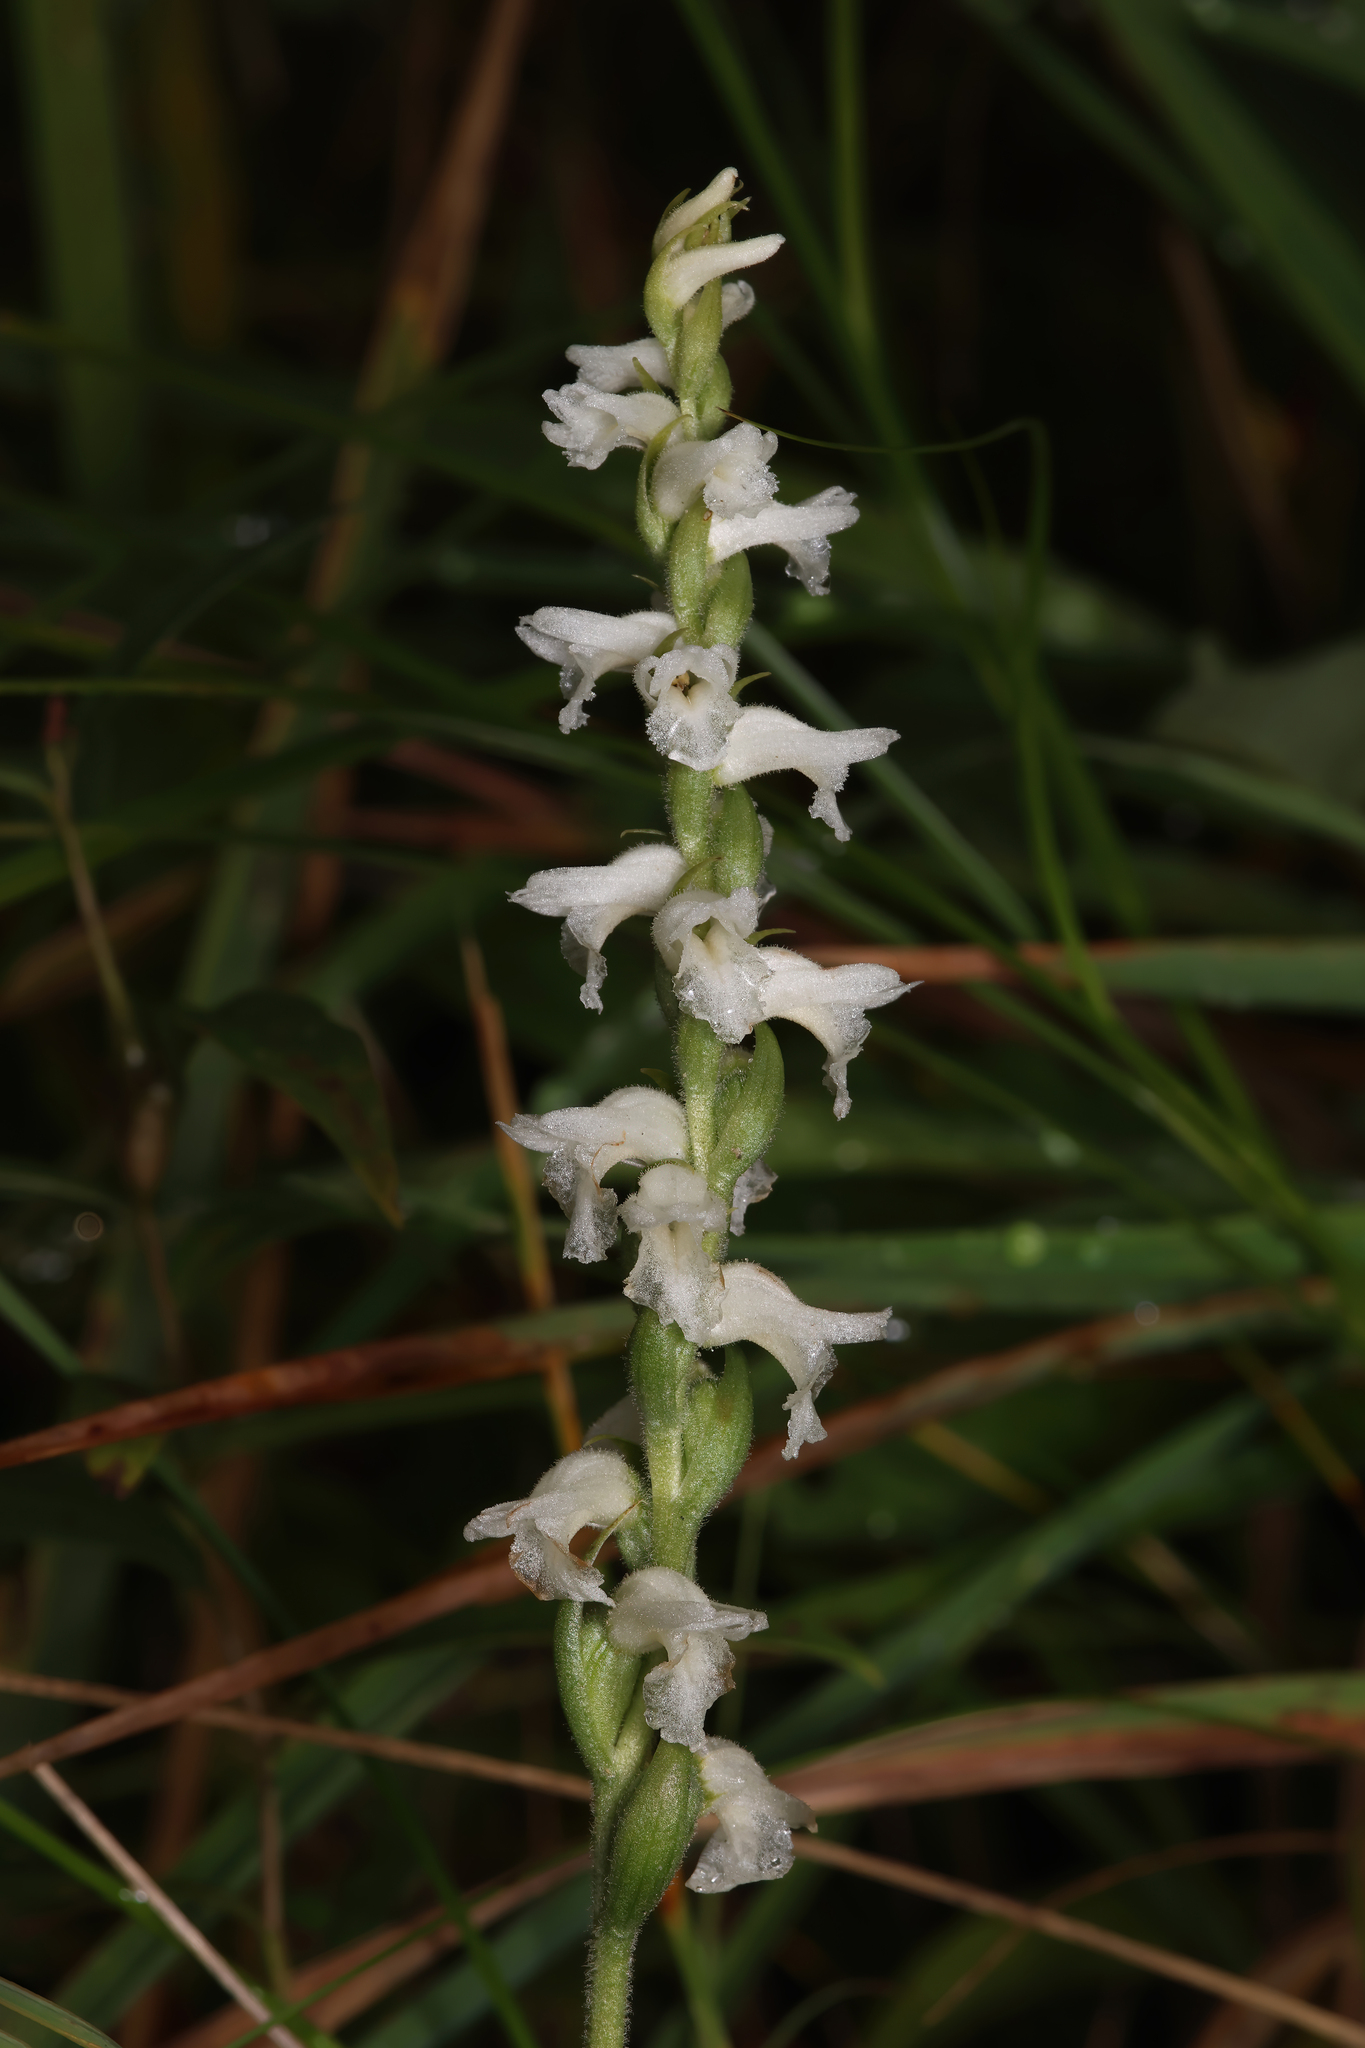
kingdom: Plantae
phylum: Tracheophyta
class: Liliopsida
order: Asparagales
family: Orchidaceae
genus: Spiranthes
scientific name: Spiranthes incurva
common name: Sphinx ladies'-tresses
